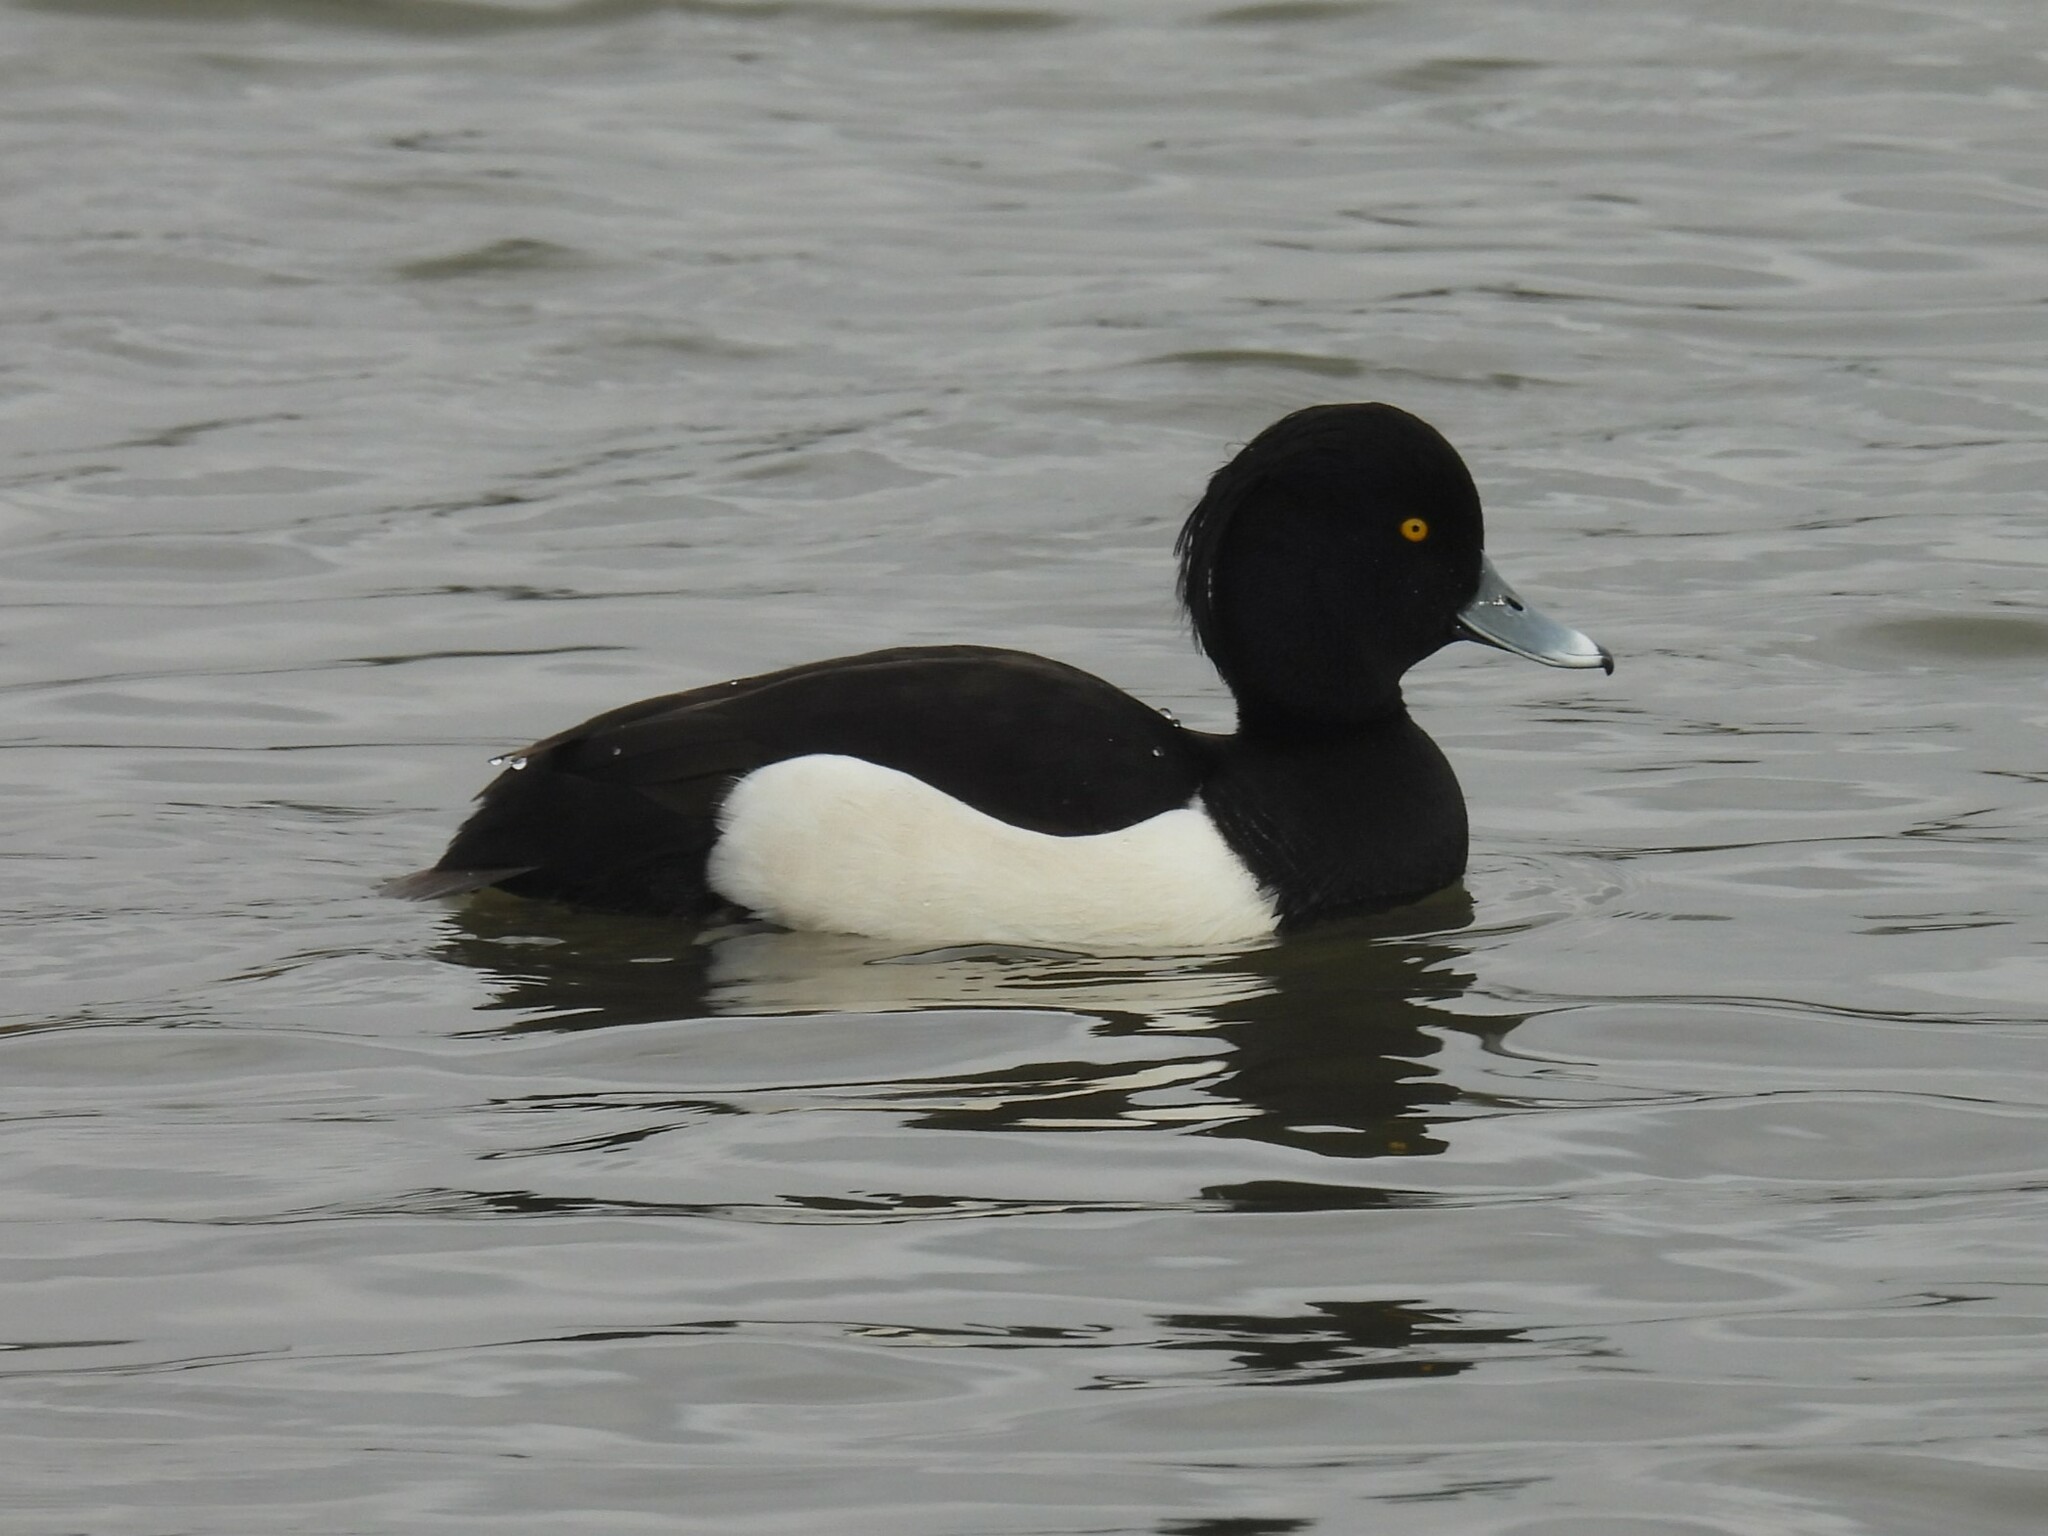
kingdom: Animalia
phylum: Chordata
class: Aves
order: Anseriformes
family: Anatidae
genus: Aythya
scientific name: Aythya fuligula
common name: Tufted duck
